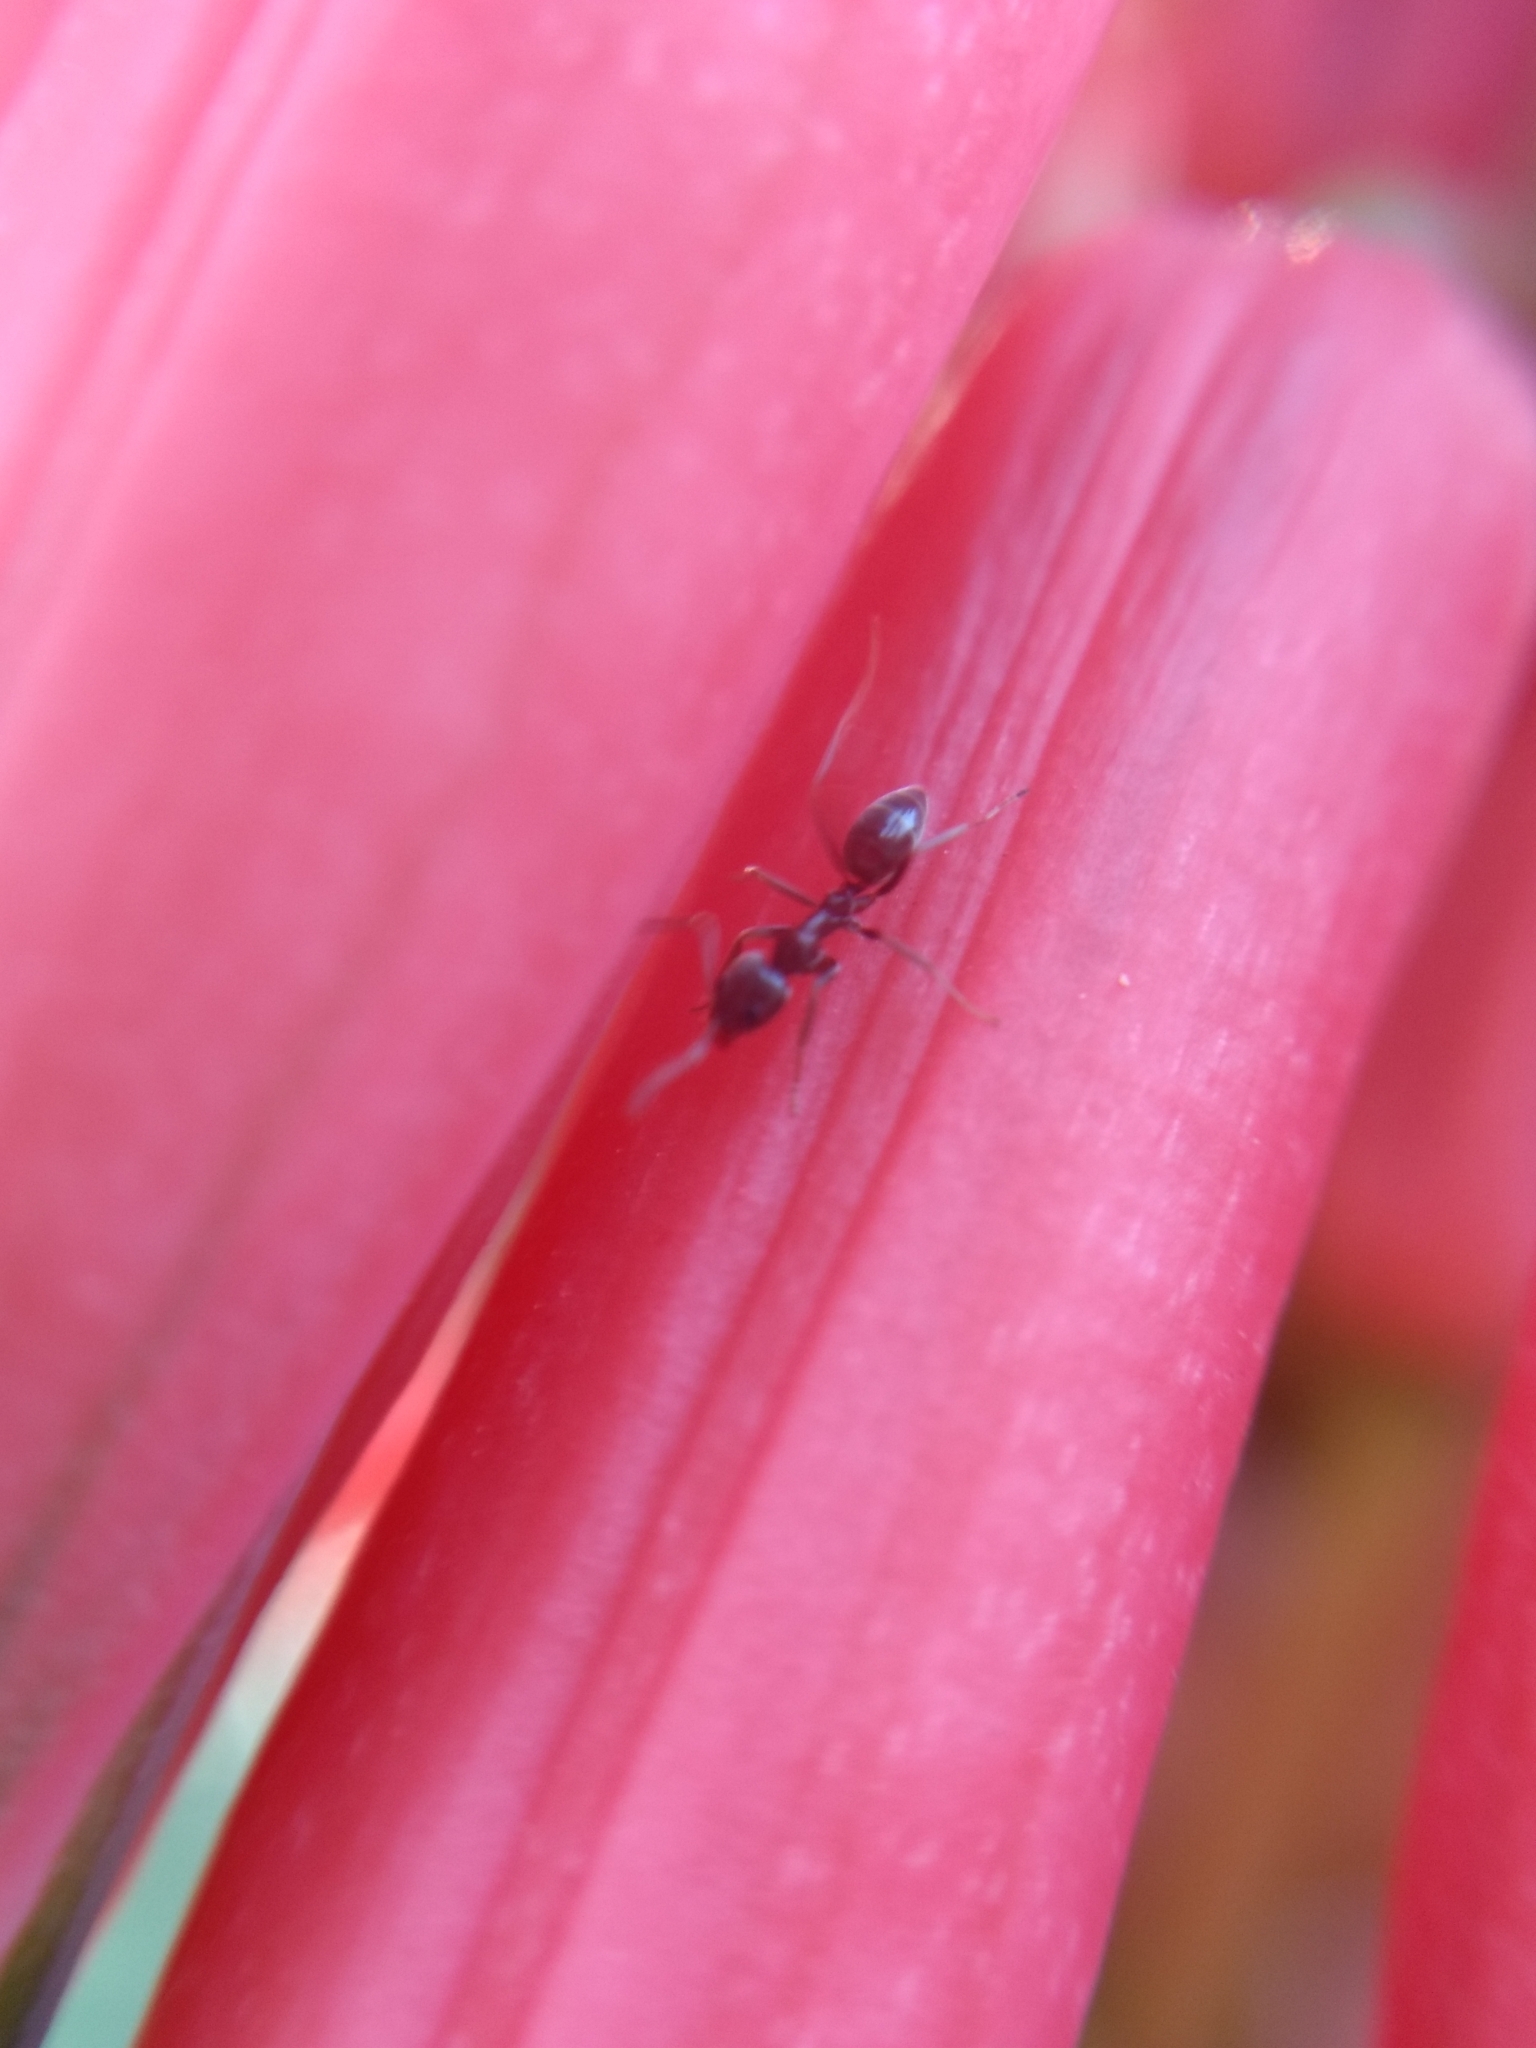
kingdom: Animalia
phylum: Arthropoda
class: Insecta
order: Hymenoptera
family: Formicidae
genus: Linepithema
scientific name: Linepithema humile
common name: Argentine ant
